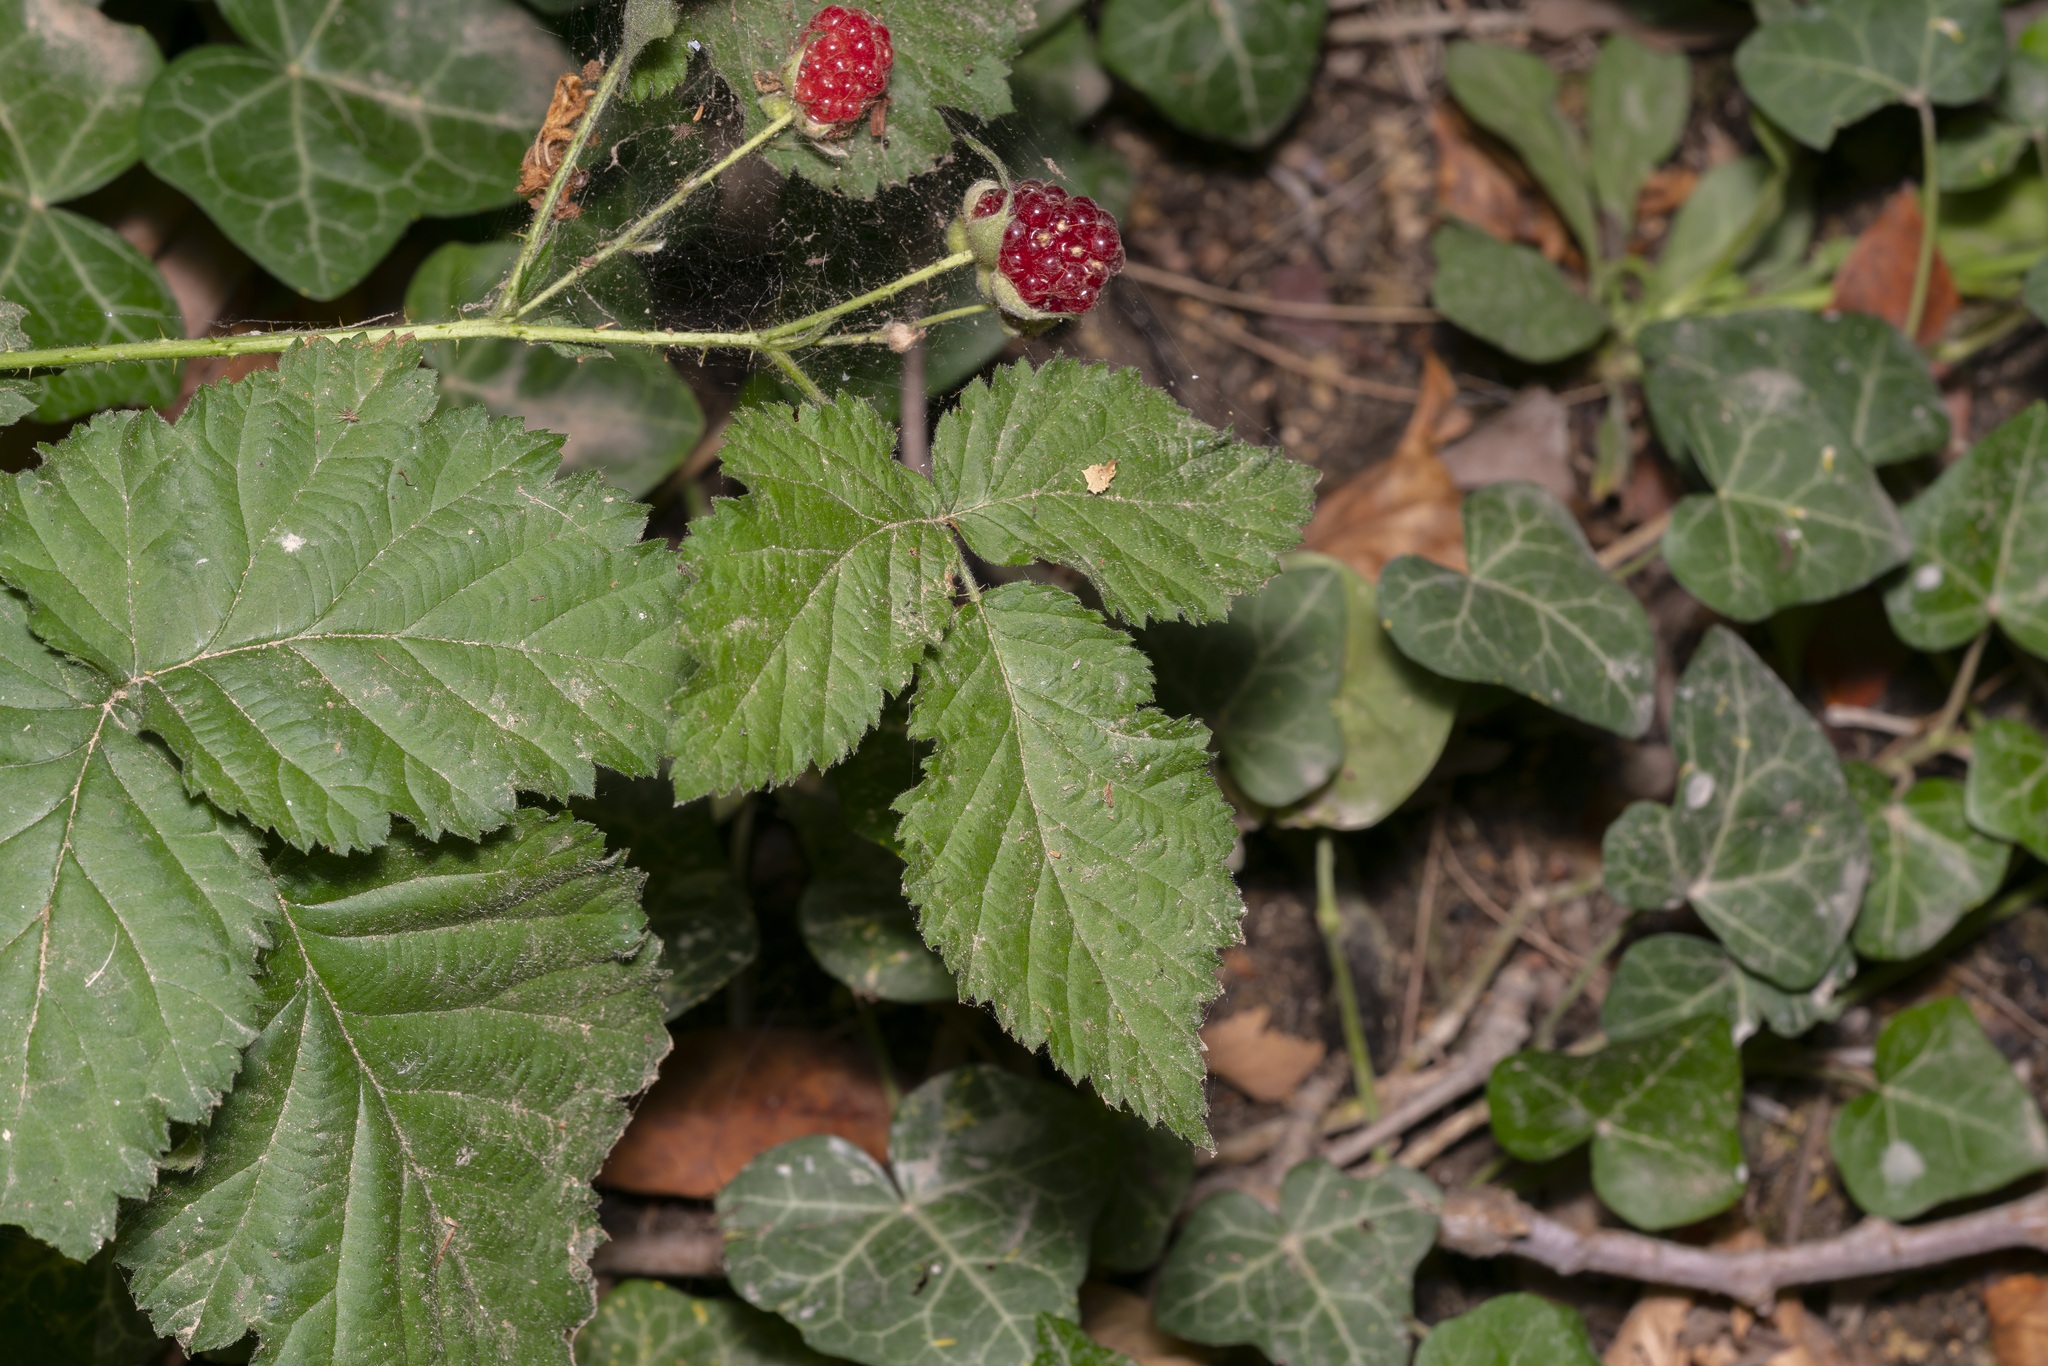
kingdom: Plantae
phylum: Tracheophyta
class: Magnoliopsida
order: Rosales
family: Rosaceae
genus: Rubus
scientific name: Rubus sanctus
